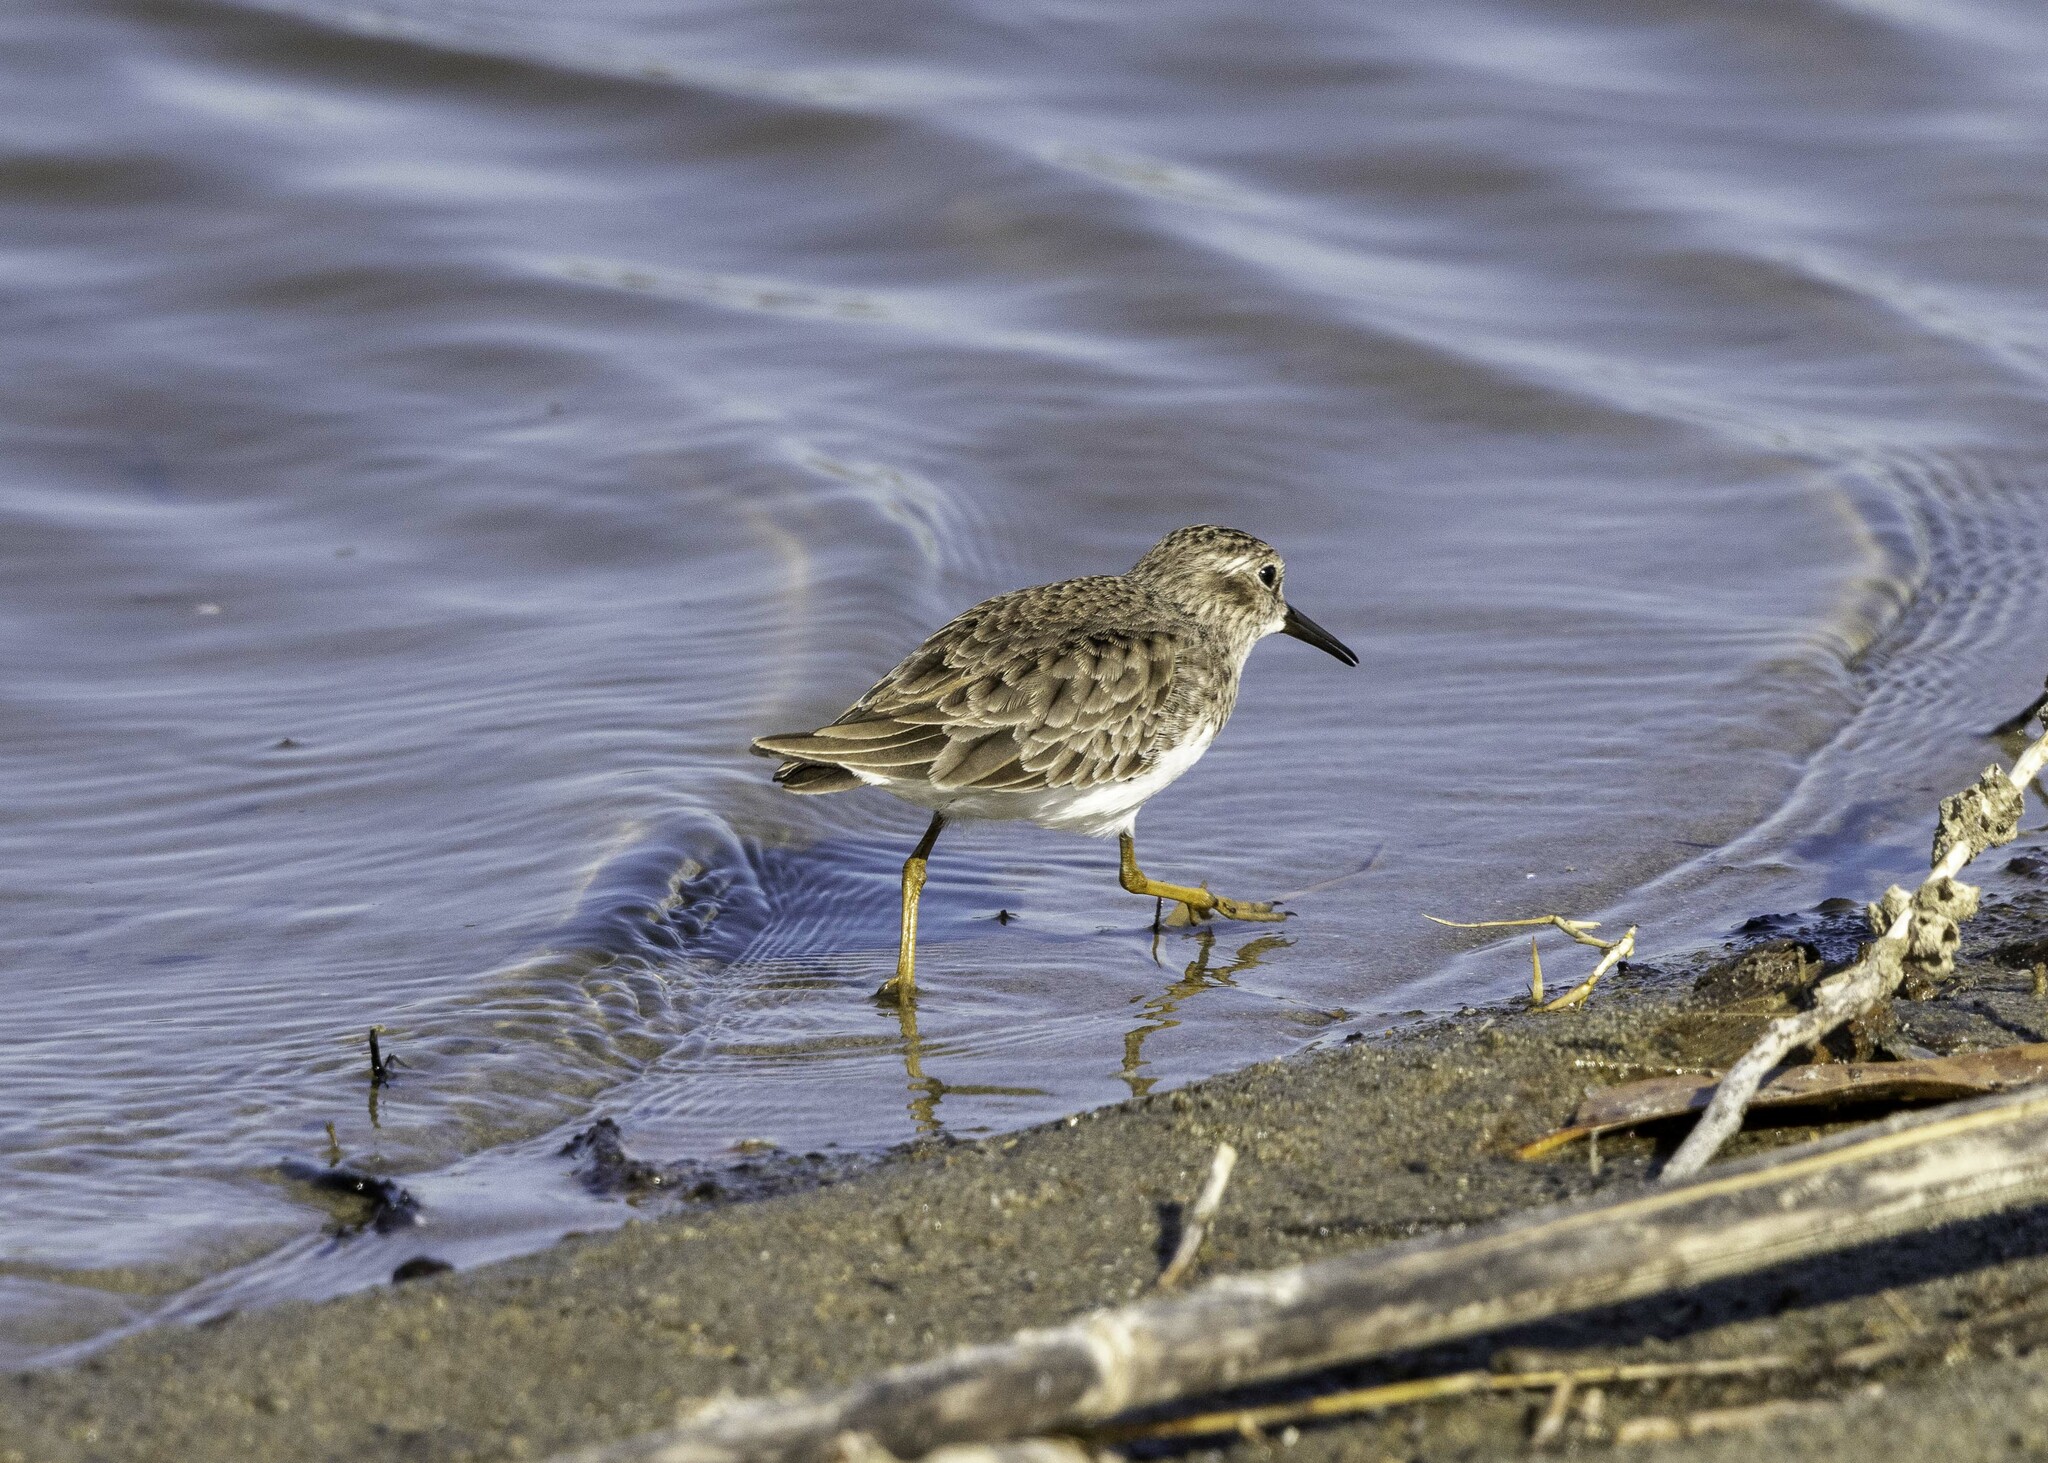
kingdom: Animalia
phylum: Chordata
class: Aves
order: Charadriiformes
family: Scolopacidae
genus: Calidris
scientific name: Calidris minutilla
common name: Least sandpiper
